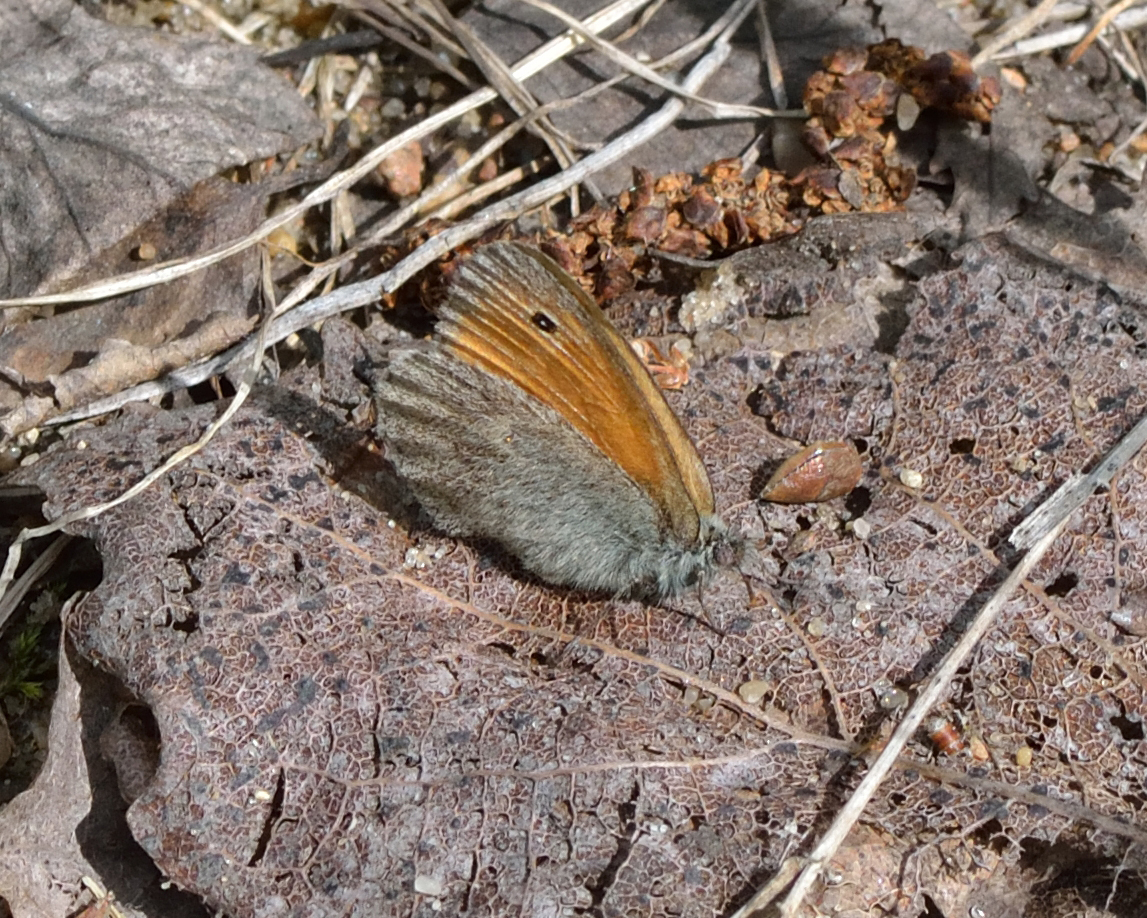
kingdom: Animalia
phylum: Arthropoda
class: Insecta
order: Lepidoptera
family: Nymphalidae
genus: Coenonympha
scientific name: Coenonympha pamphilus
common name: Small heath
